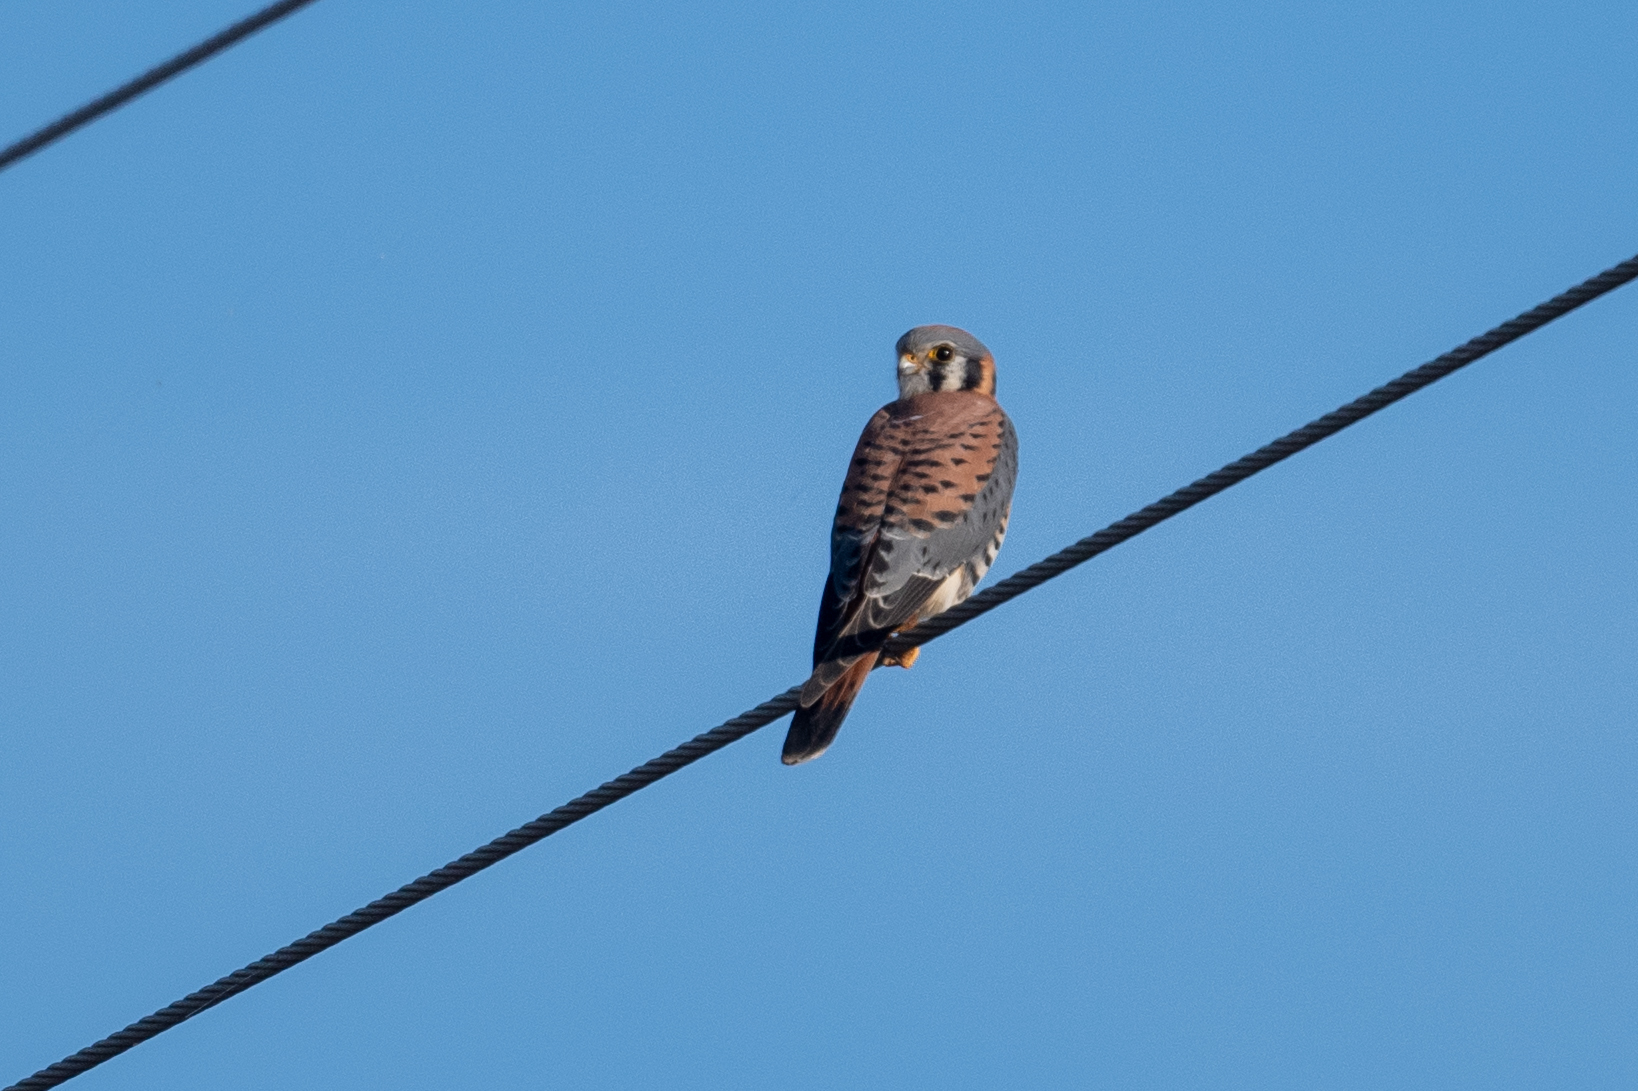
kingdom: Animalia
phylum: Chordata
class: Aves
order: Falconiformes
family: Falconidae
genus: Falco
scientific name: Falco sparverius
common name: American kestrel
